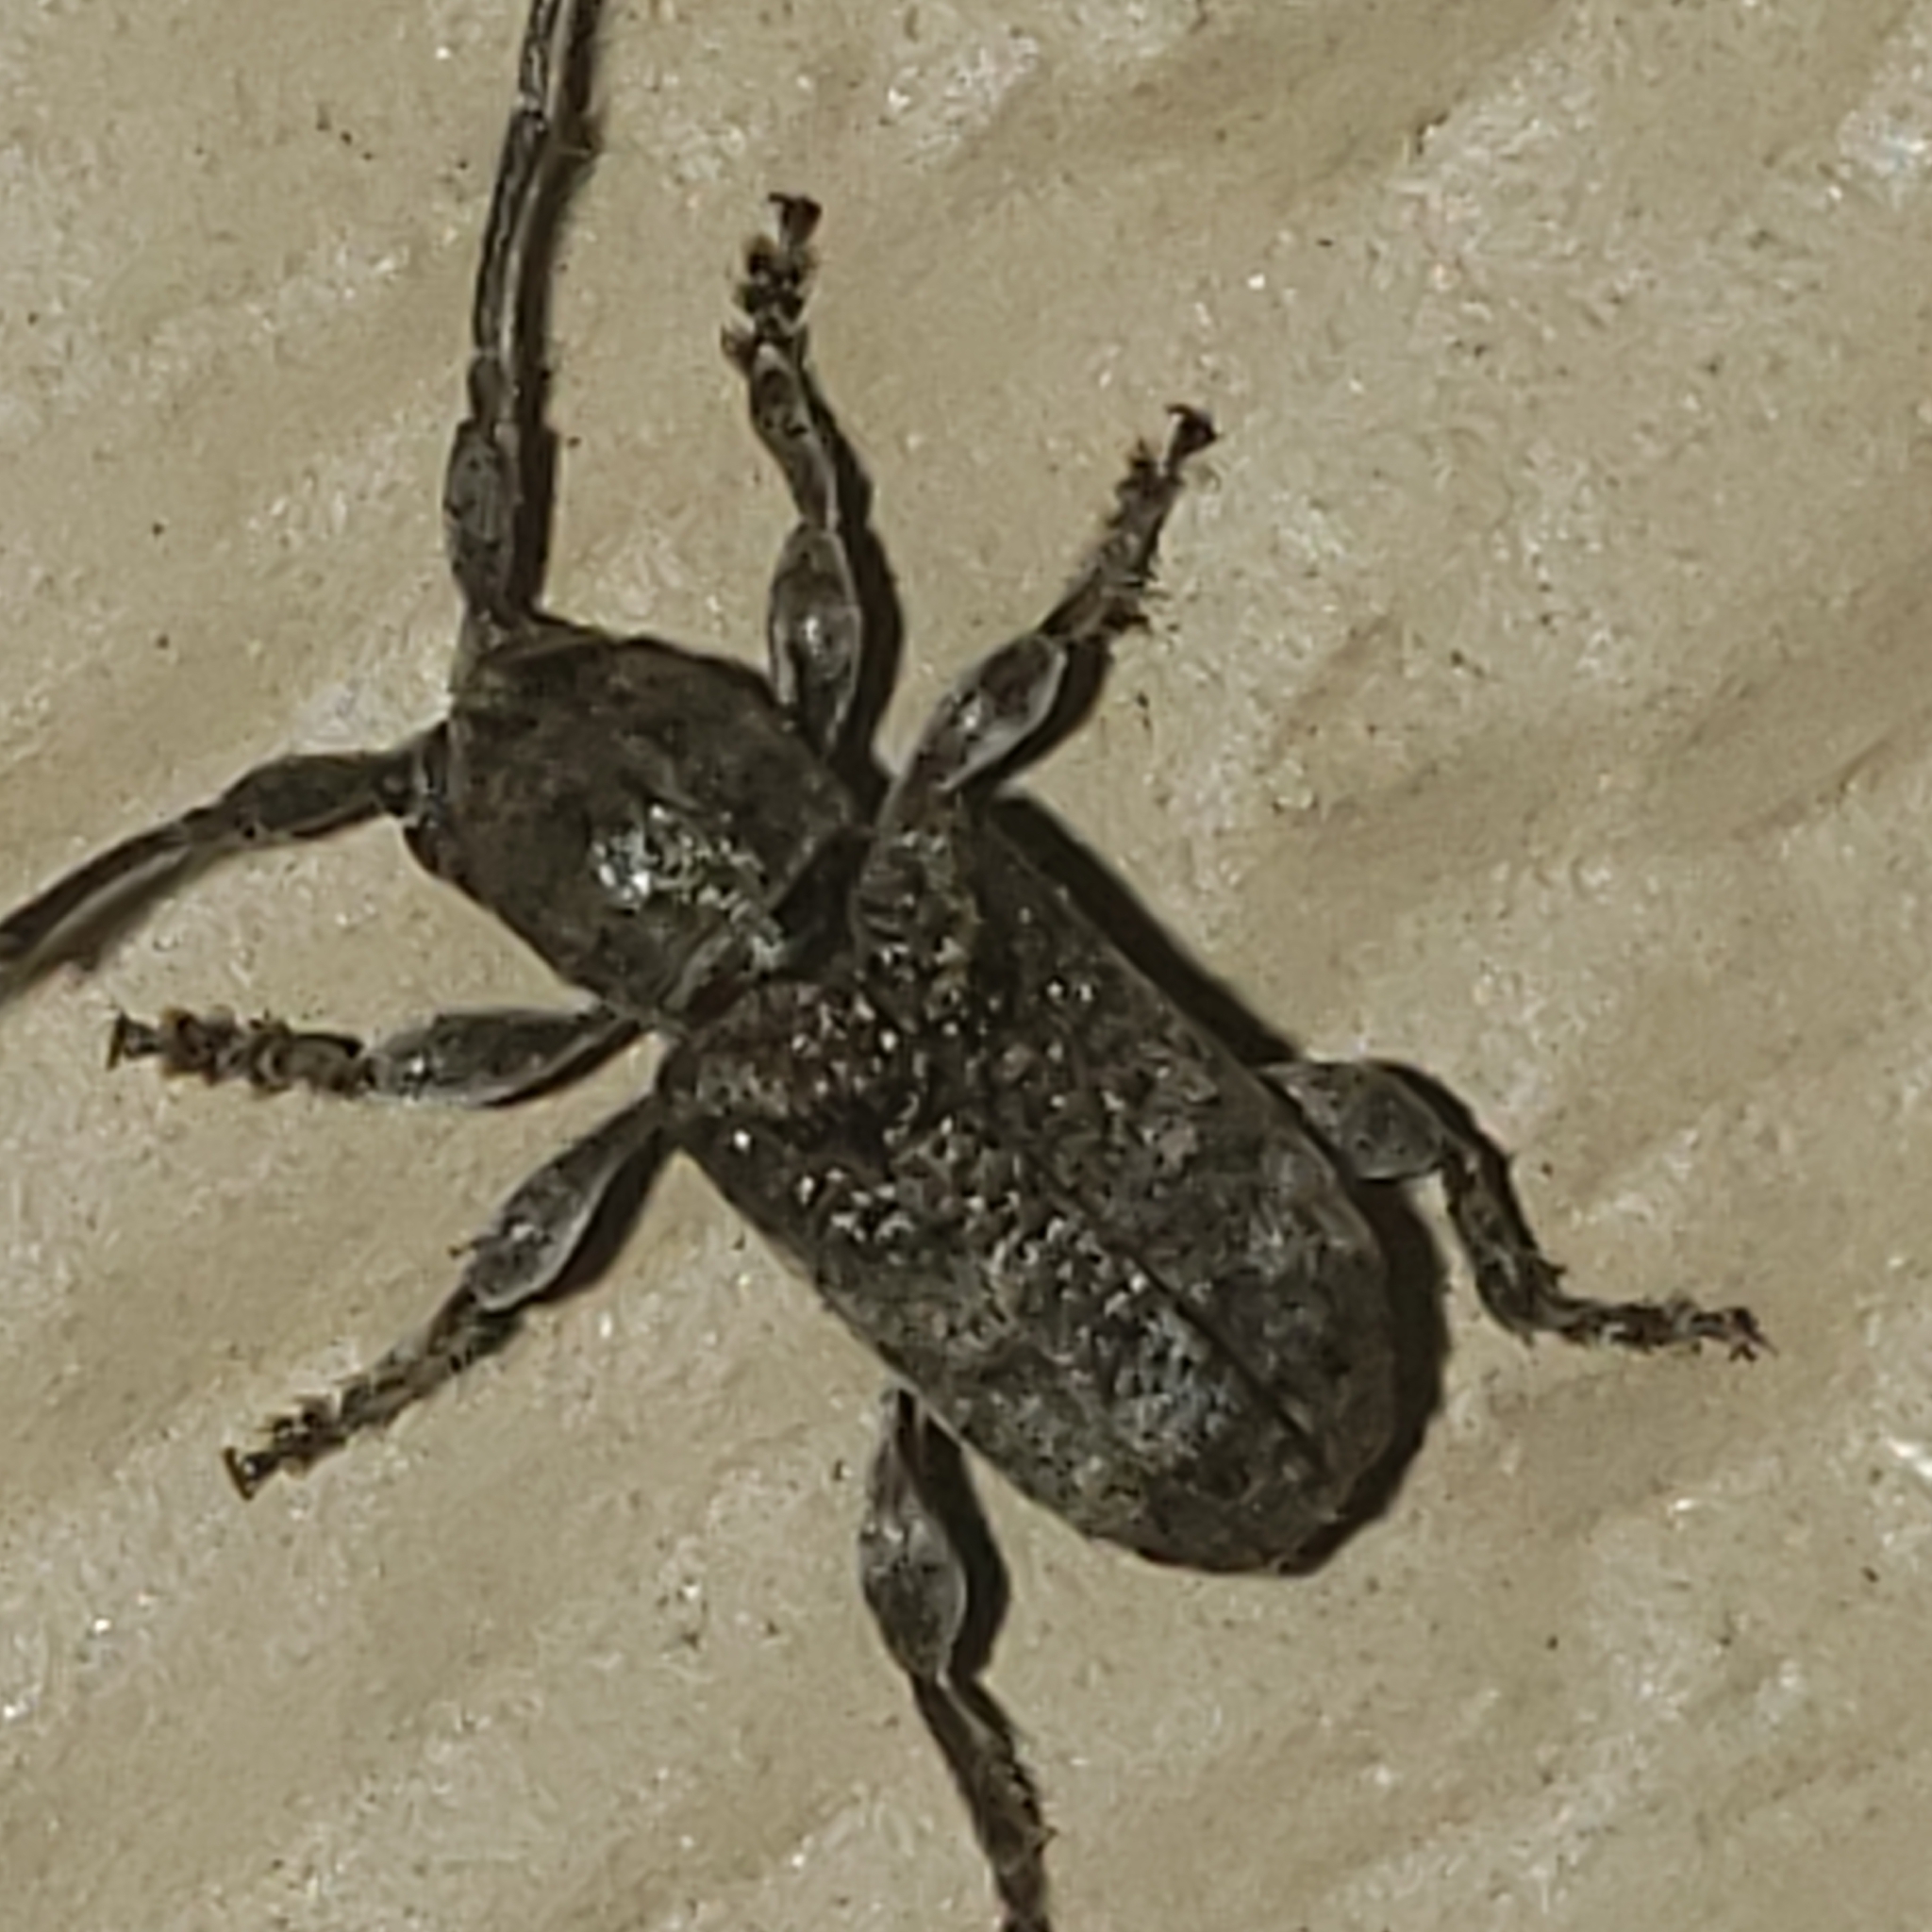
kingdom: Animalia
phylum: Arthropoda
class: Insecta
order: Coleoptera
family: Cerambycidae
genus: Ecyrus
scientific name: Ecyrus dasycerus
